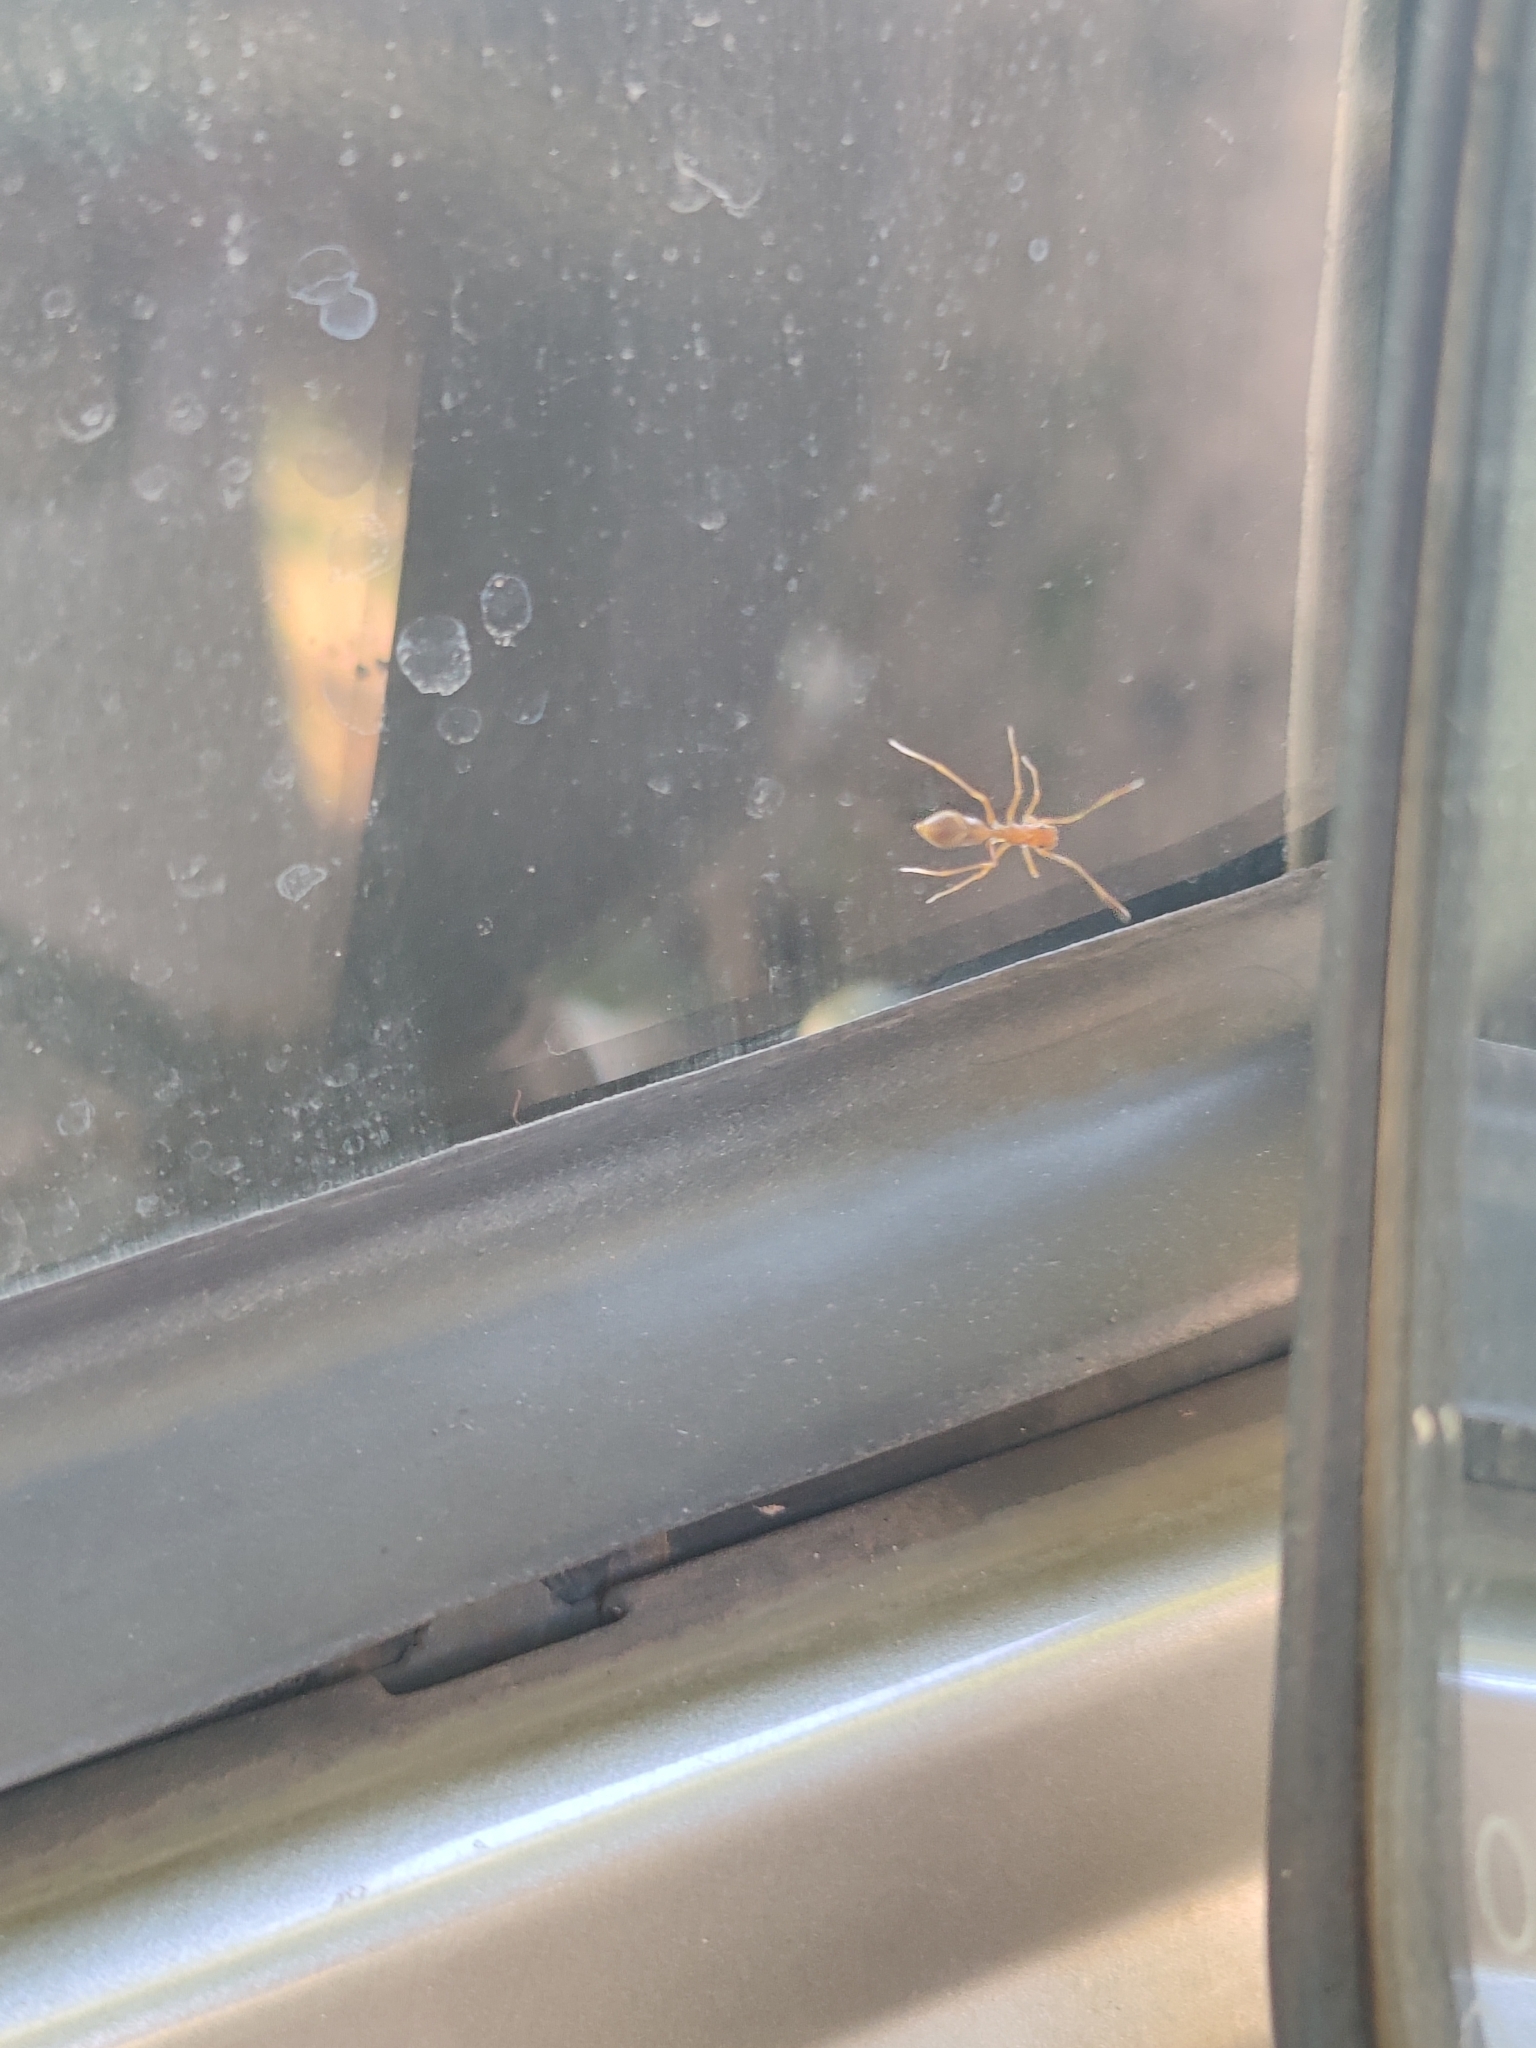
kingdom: Animalia
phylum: Arthropoda
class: Arachnida
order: Araneae
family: Salticidae
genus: Myrmaplata
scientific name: Myrmaplata plataleoides
